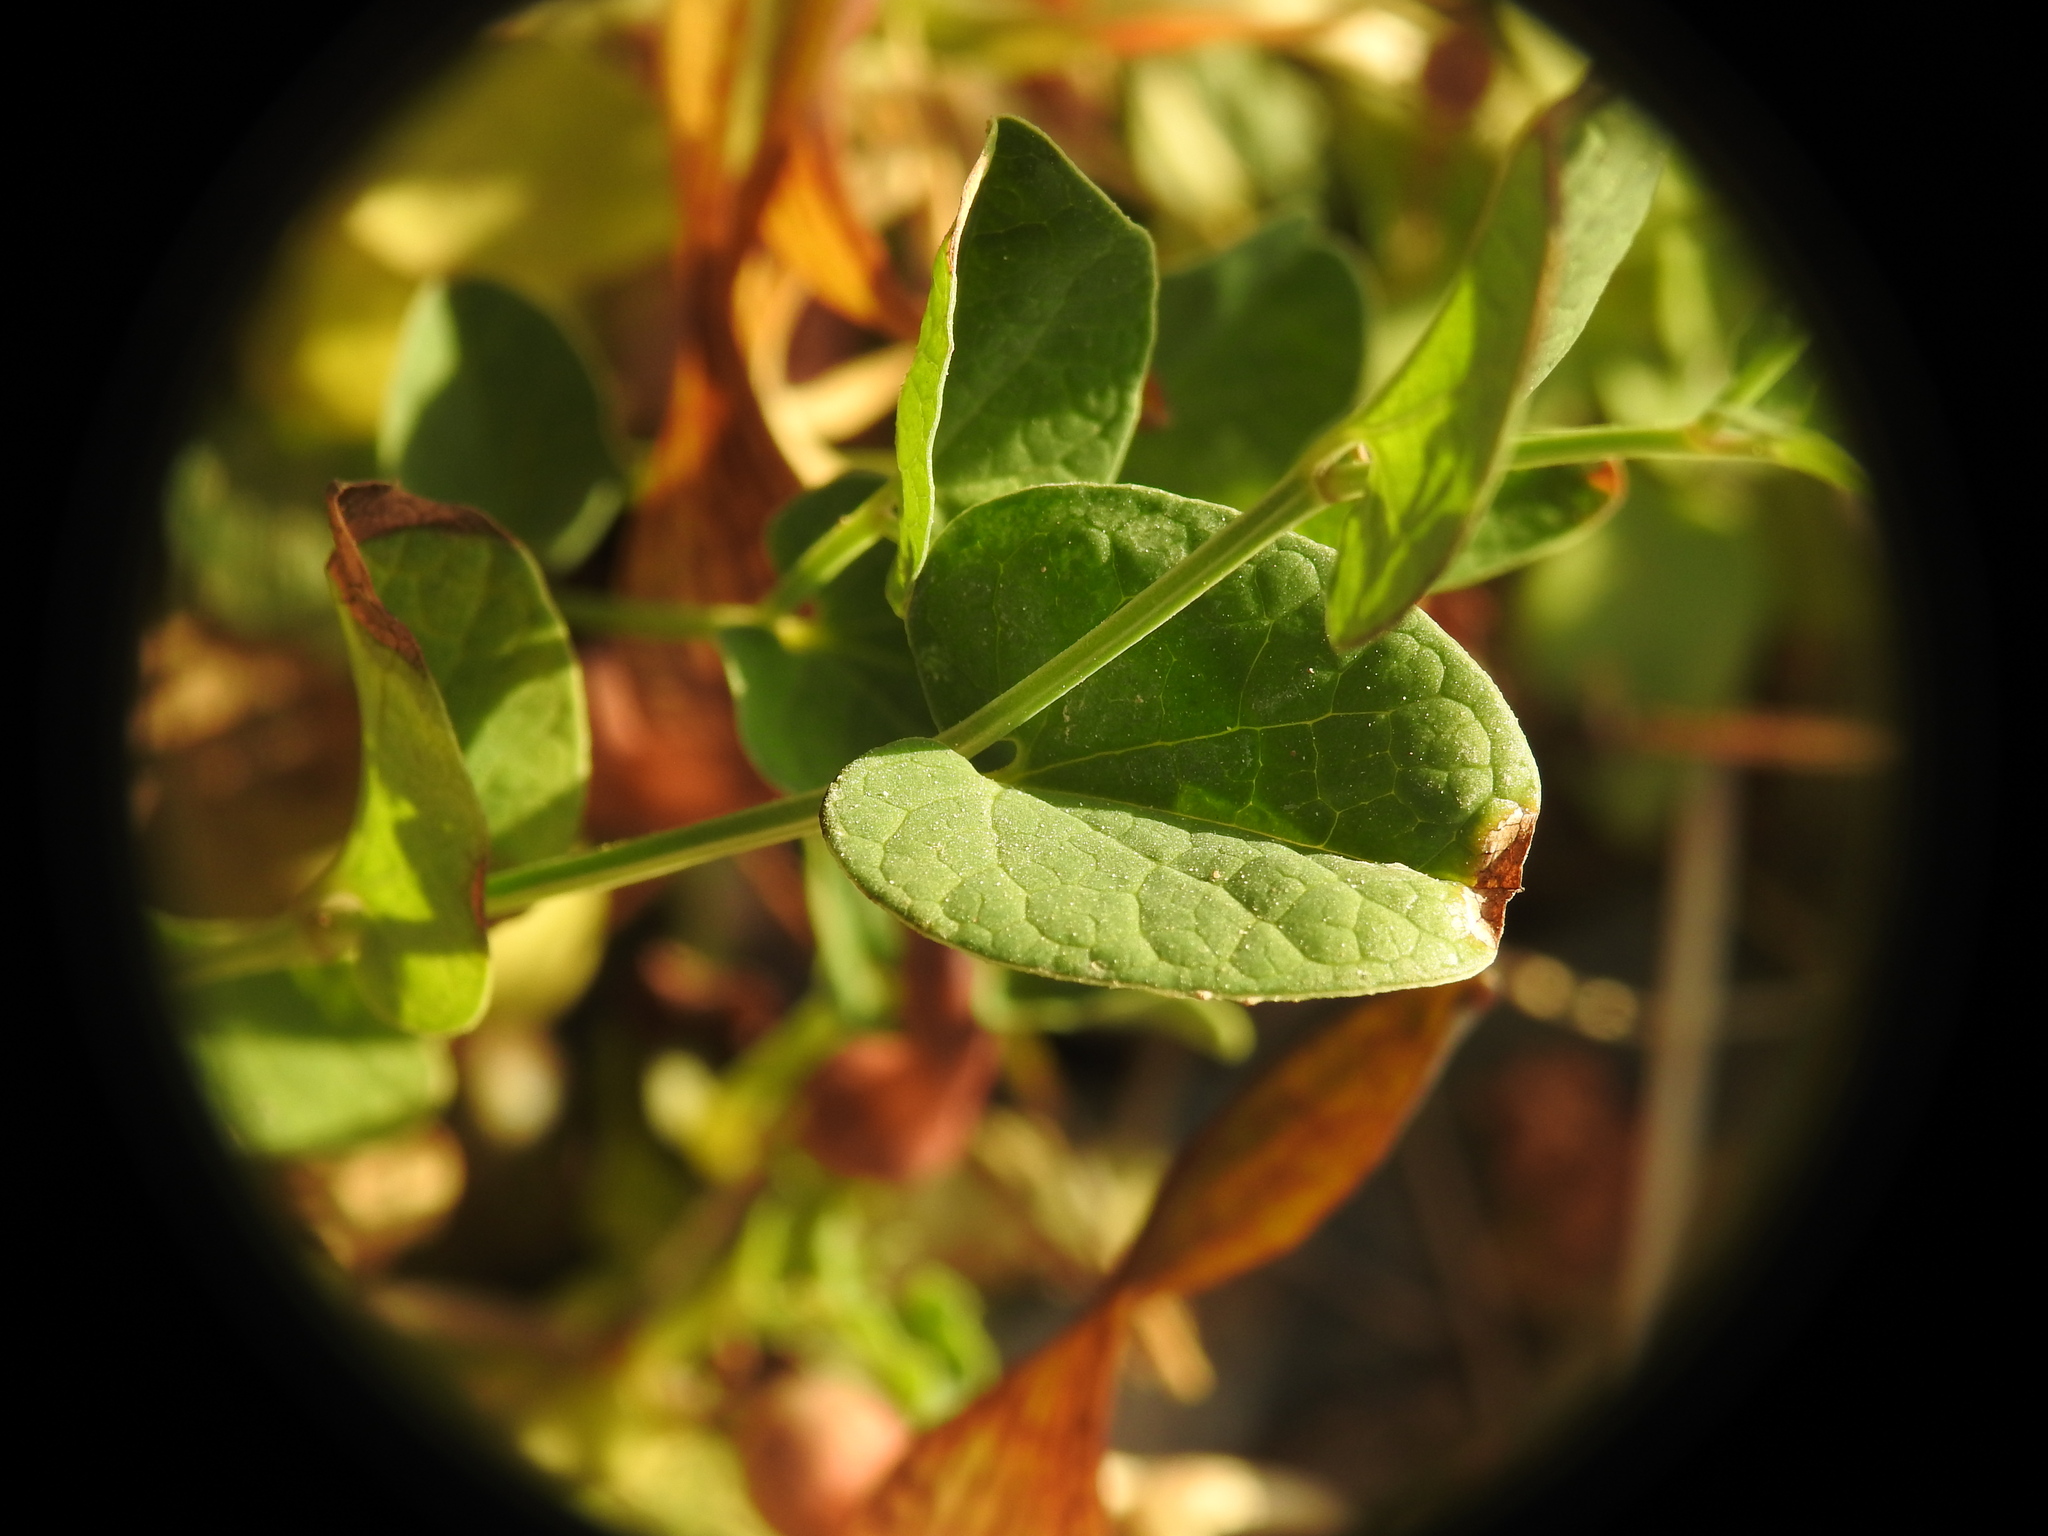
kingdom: Plantae
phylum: Tracheophyta
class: Magnoliopsida
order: Piperales
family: Aristolochiaceae
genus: Aristolochia
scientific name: Aristolochia parvifolia
